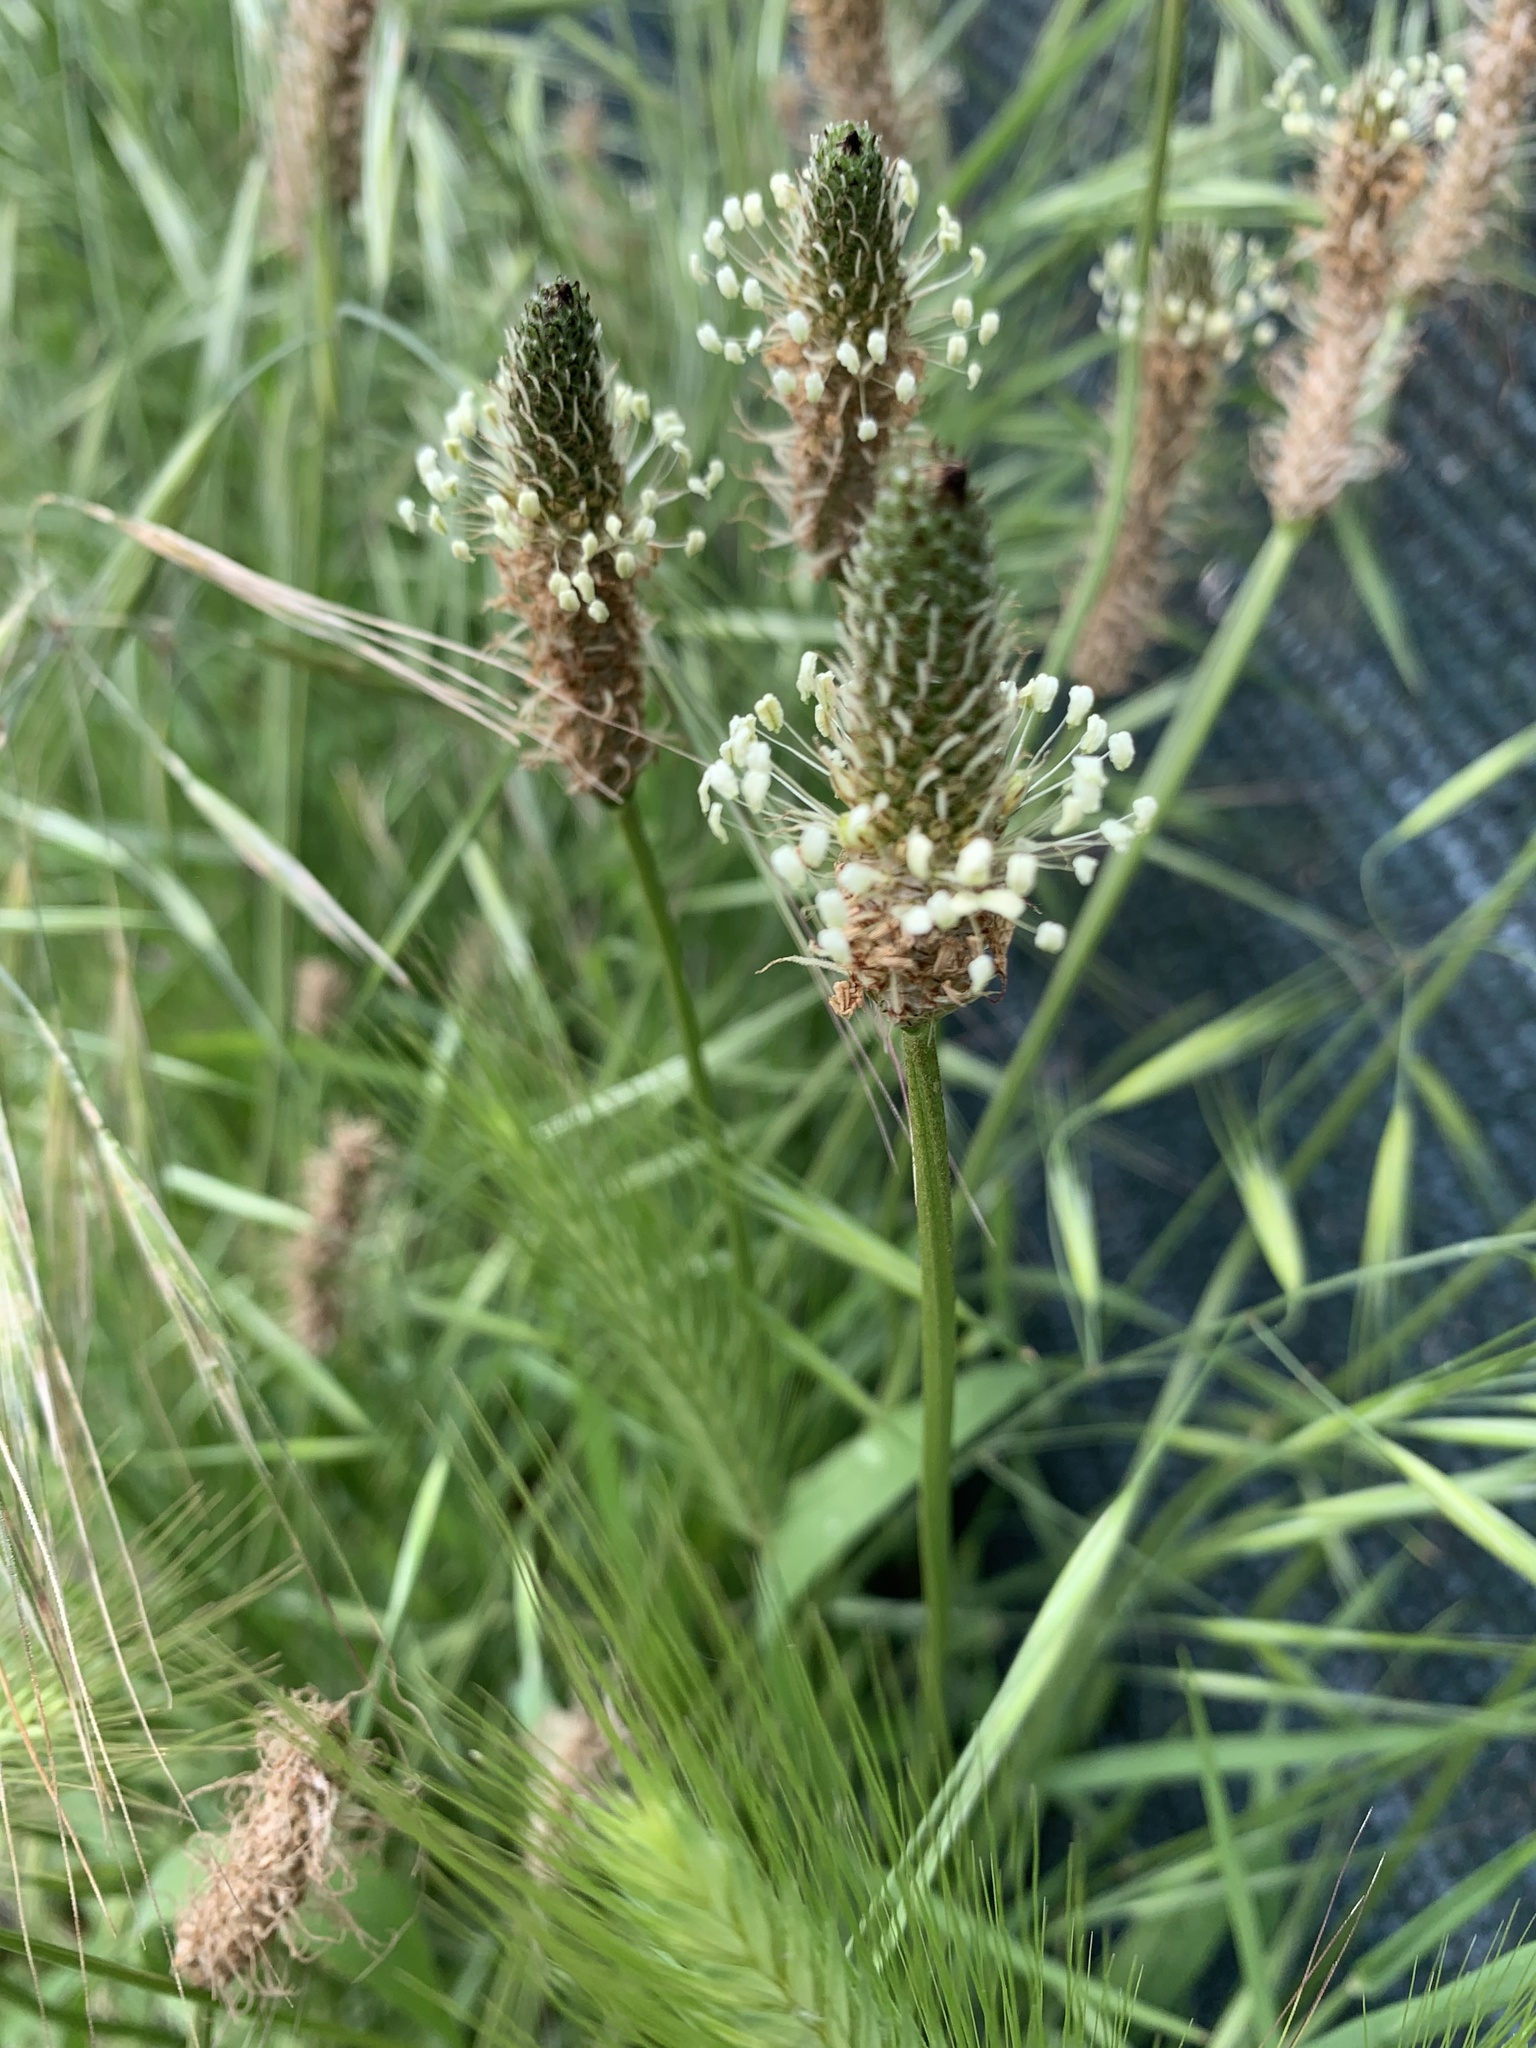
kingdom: Plantae
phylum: Tracheophyta
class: Magnoliopsida
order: Lamiales
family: Plantaginaceae
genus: Plantago
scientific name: Plantago lanceolata
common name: Ribwort plantain
